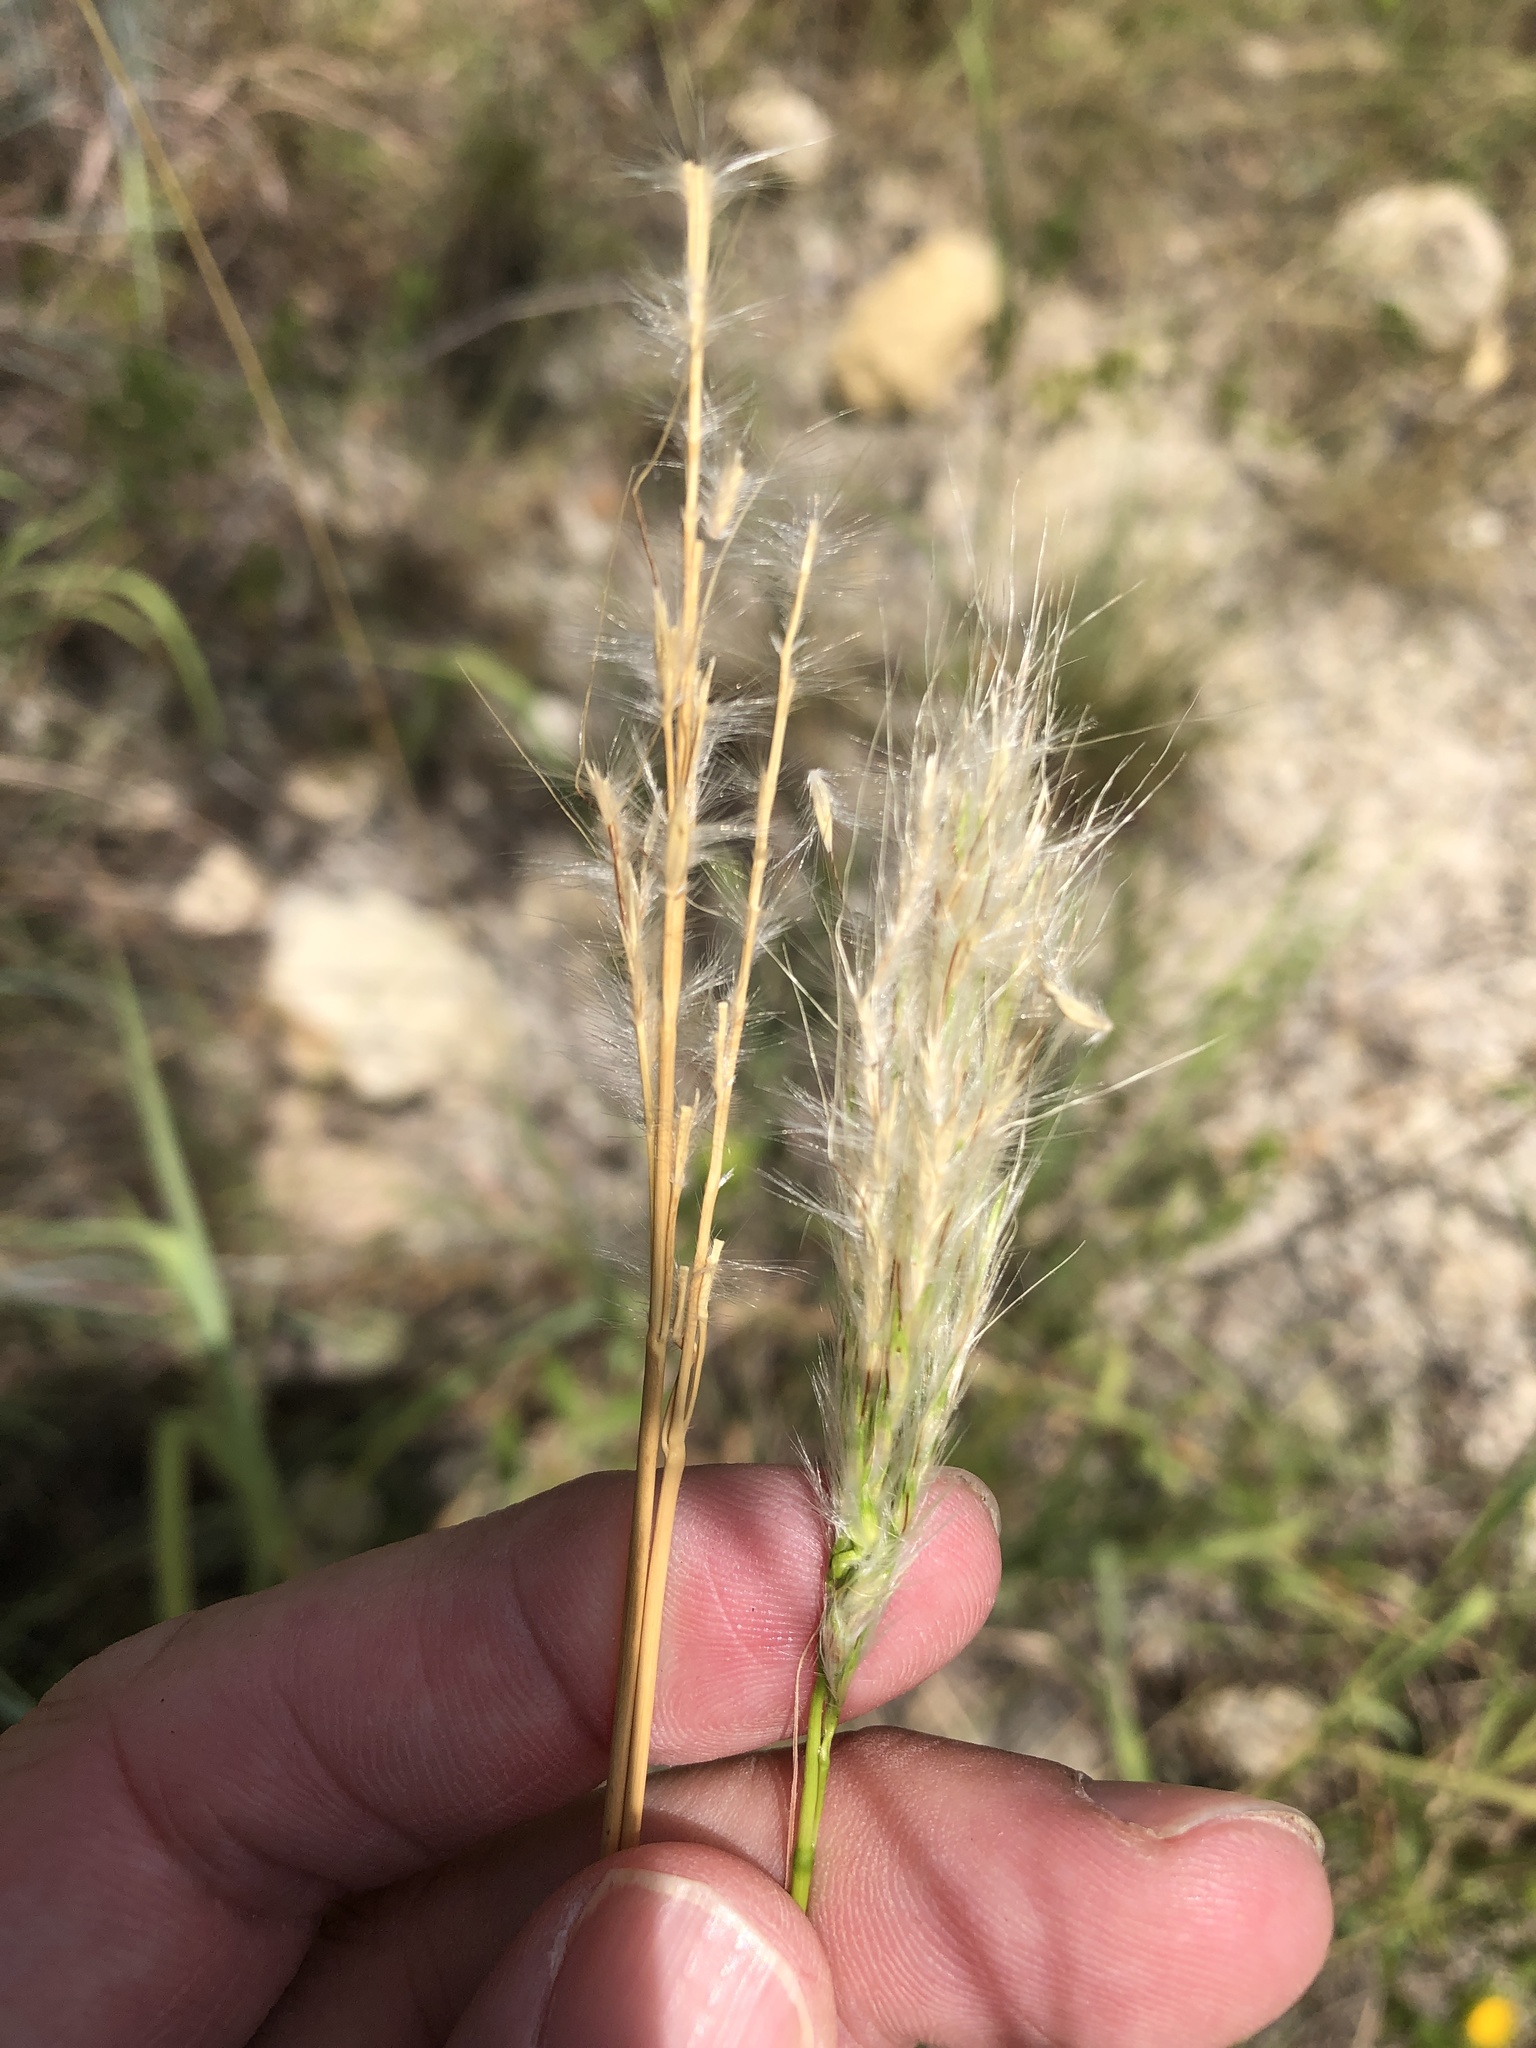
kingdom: Plantae
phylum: Tracheophyta
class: Liliopsida
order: Poales
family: Poaceae
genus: Bothriochloa
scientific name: Bothriochloa torreyana
